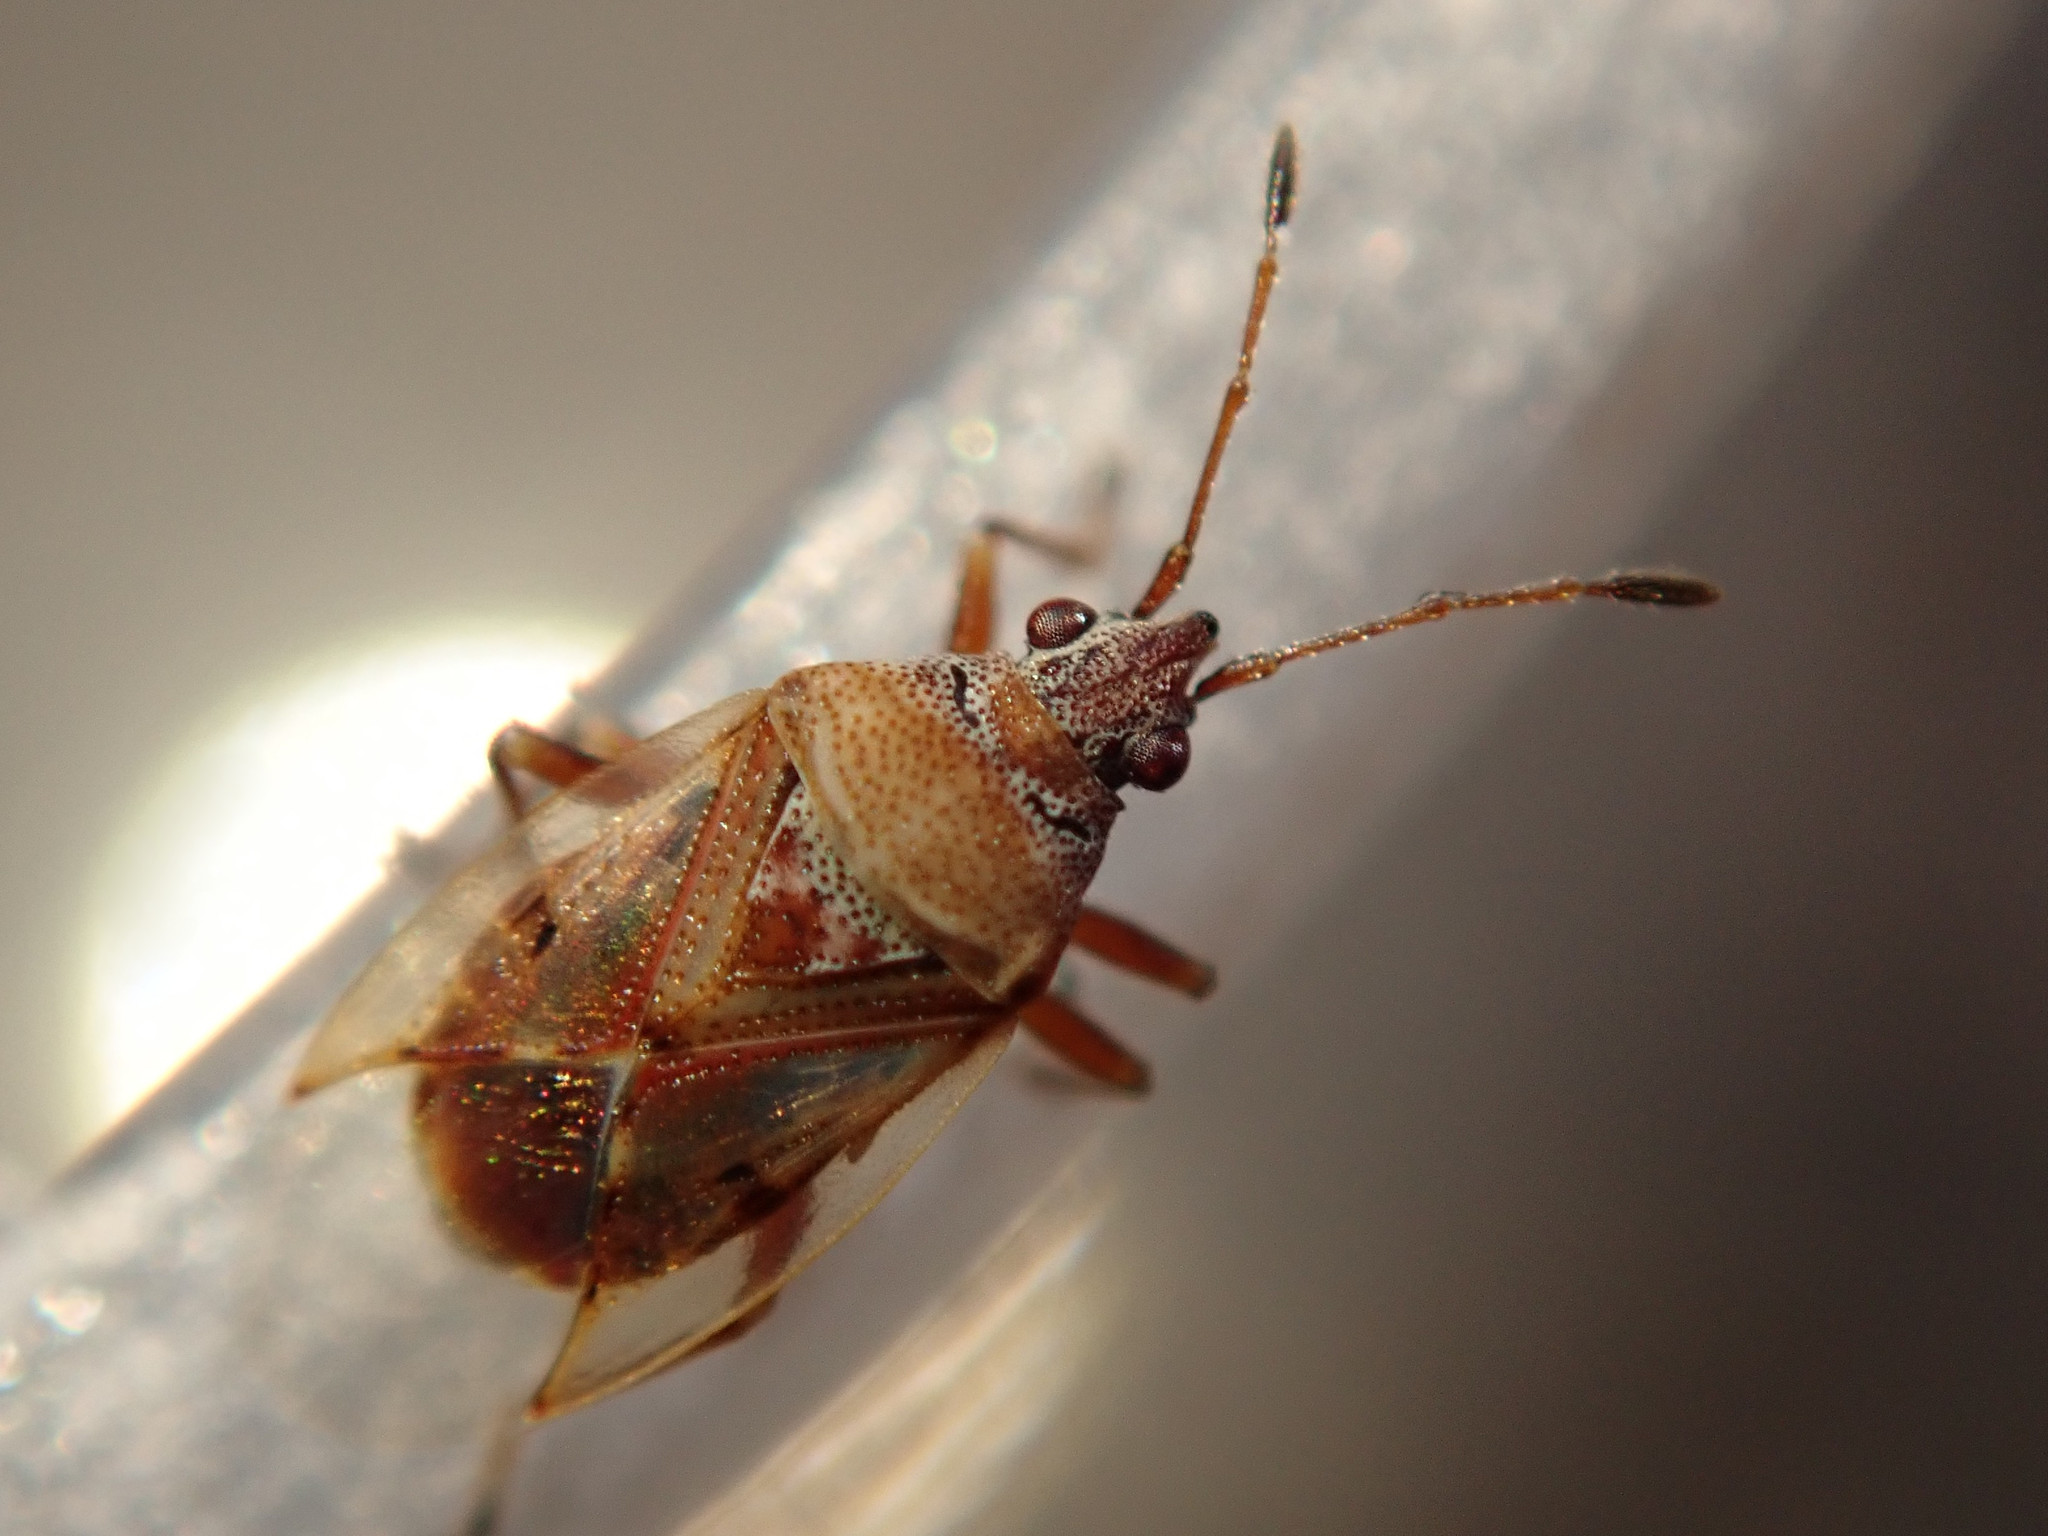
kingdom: Animalia
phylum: Arthropoda
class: Insecta
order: Hemiptera
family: Lygaeidae
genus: Kleidocerys
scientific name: Kleidocerys resedae
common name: Birch catkin bug
